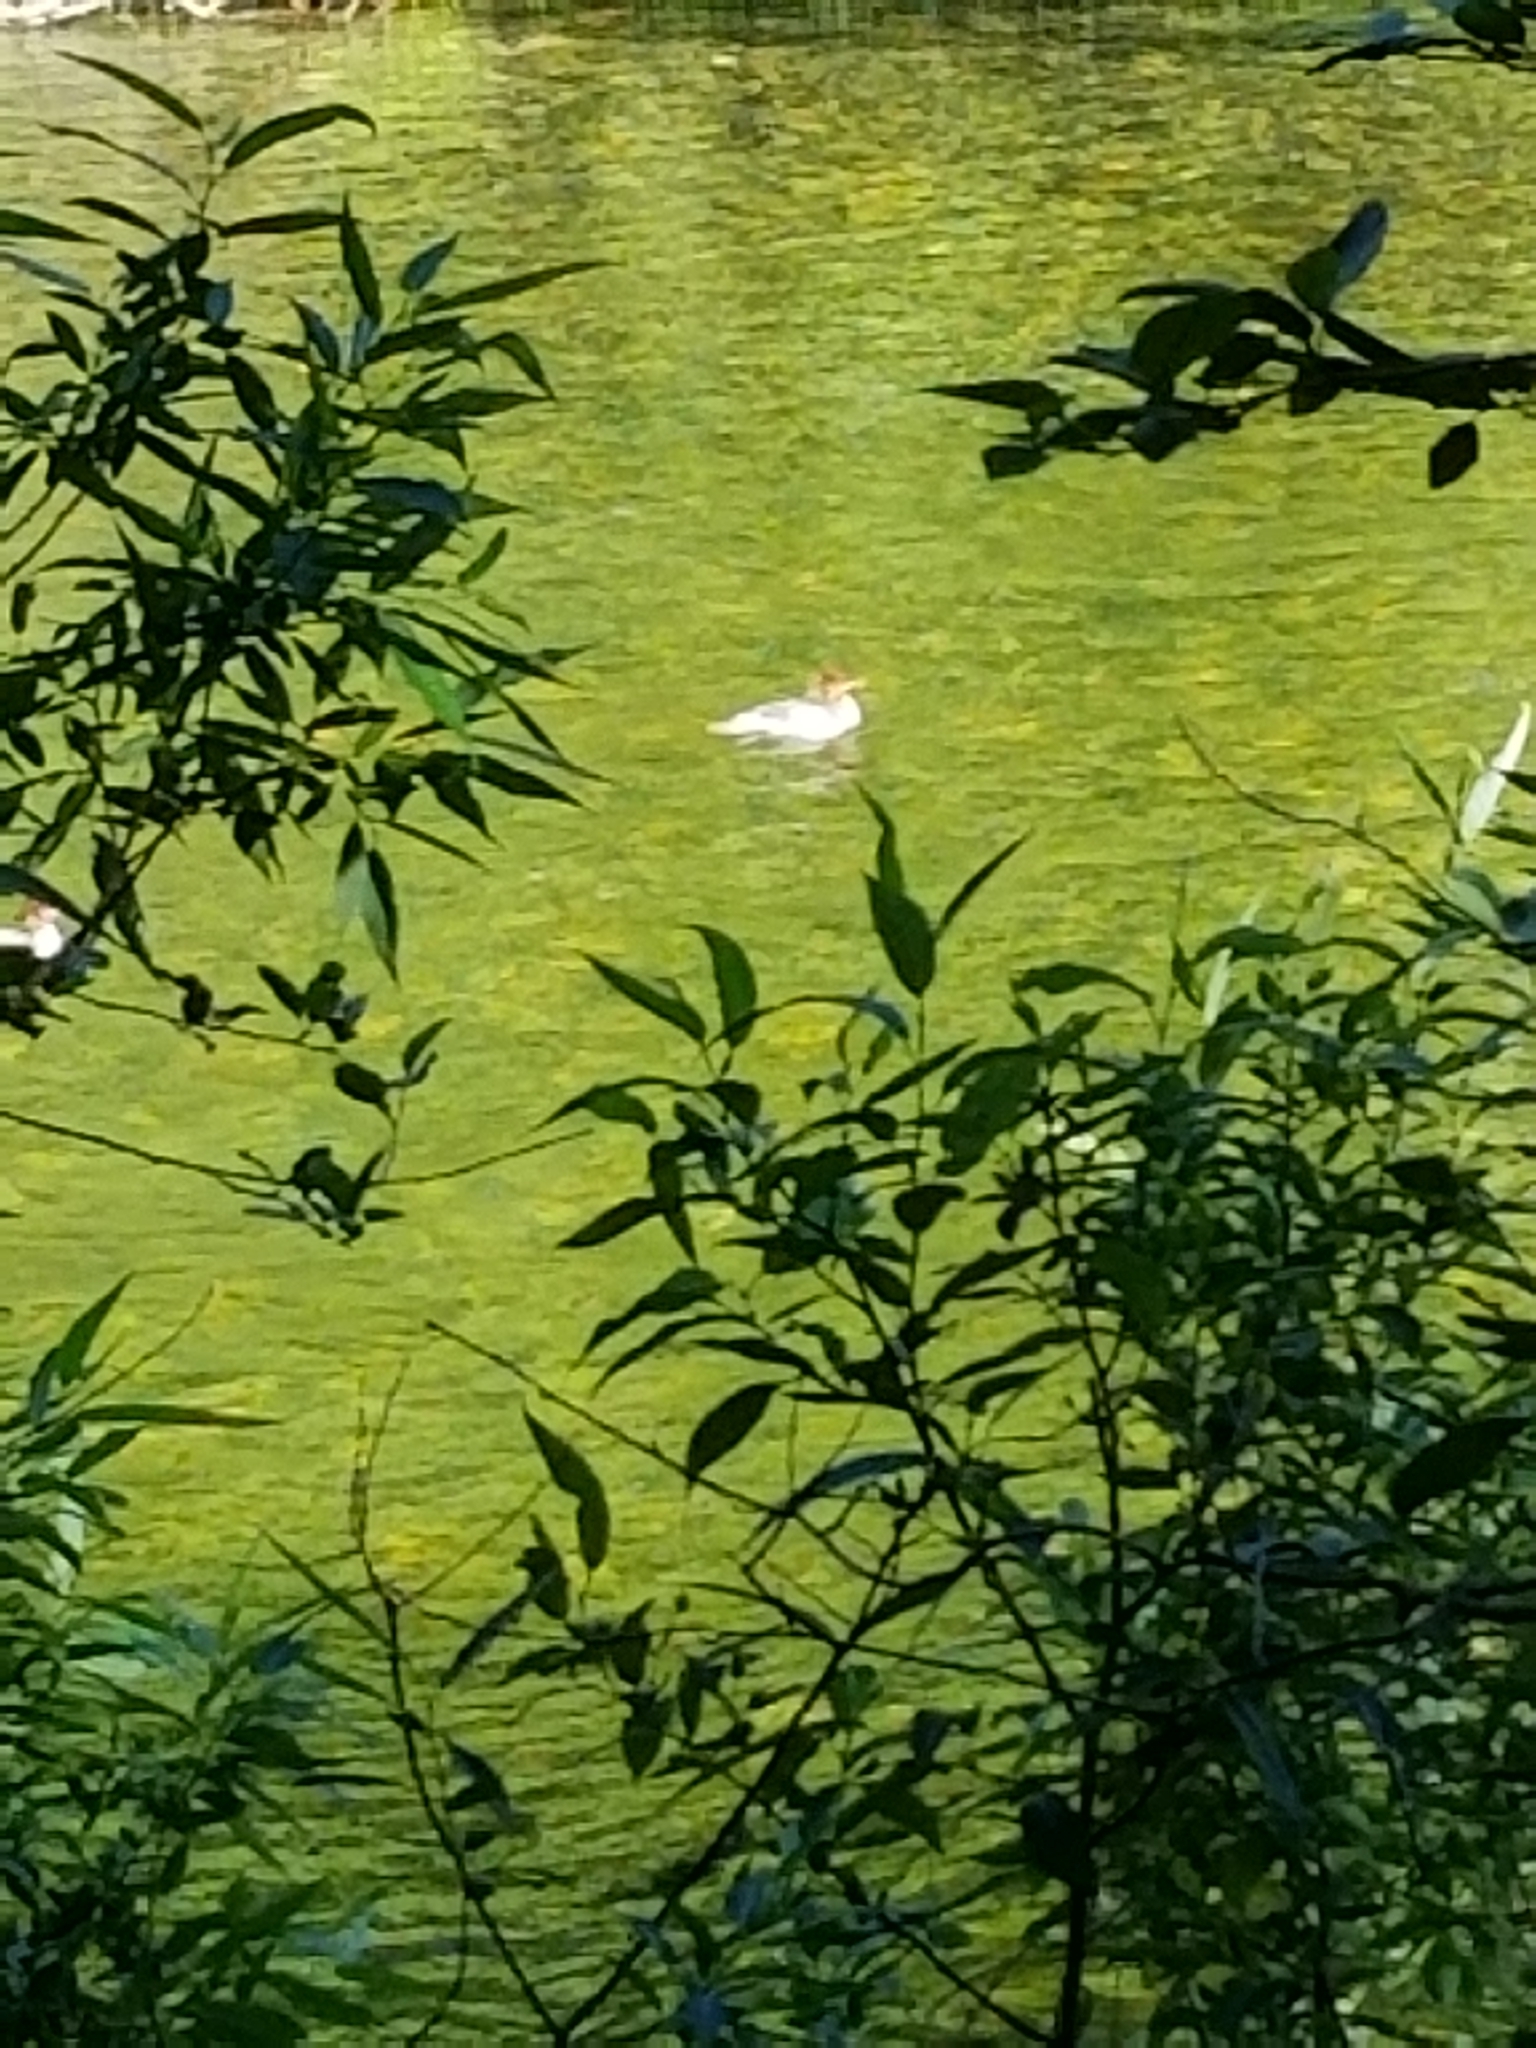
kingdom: Animalia
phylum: Chordata
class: Aves
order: Anseriformes
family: Anatidae
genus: Mergus
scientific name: Mergus merganser
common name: Common merganser
